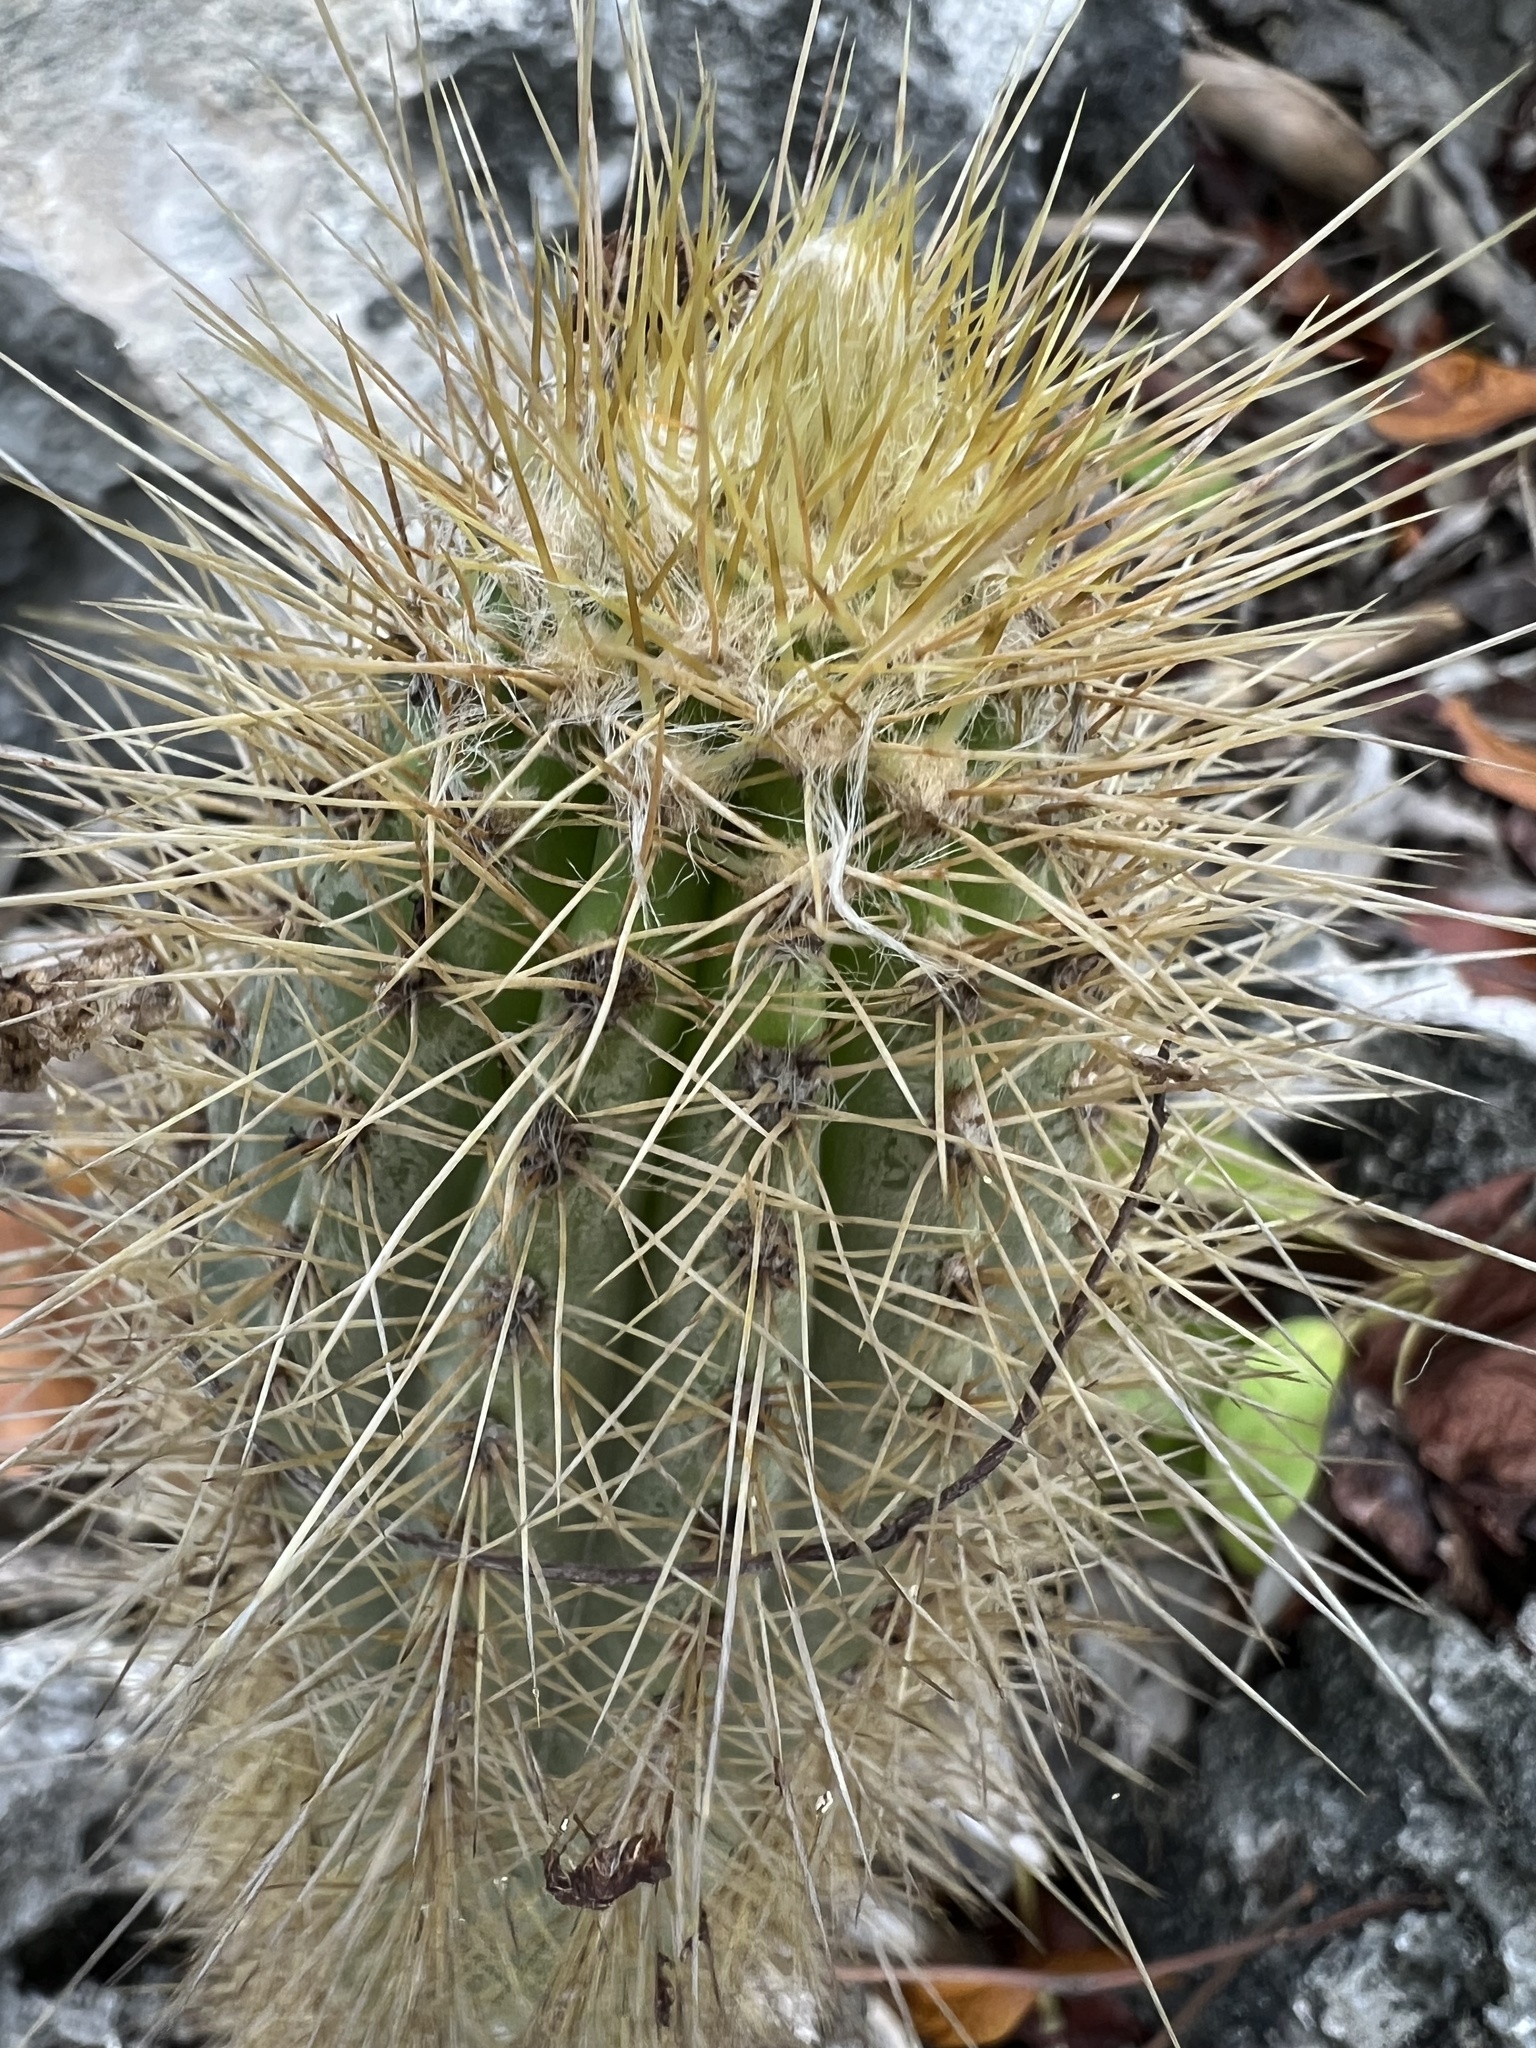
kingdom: Plantae
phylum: Tracheophyta
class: Magnoliopsida
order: Caryophyllales
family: Cactaceae
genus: Pilosocereus
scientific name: Pilosocereus jamaicensis
